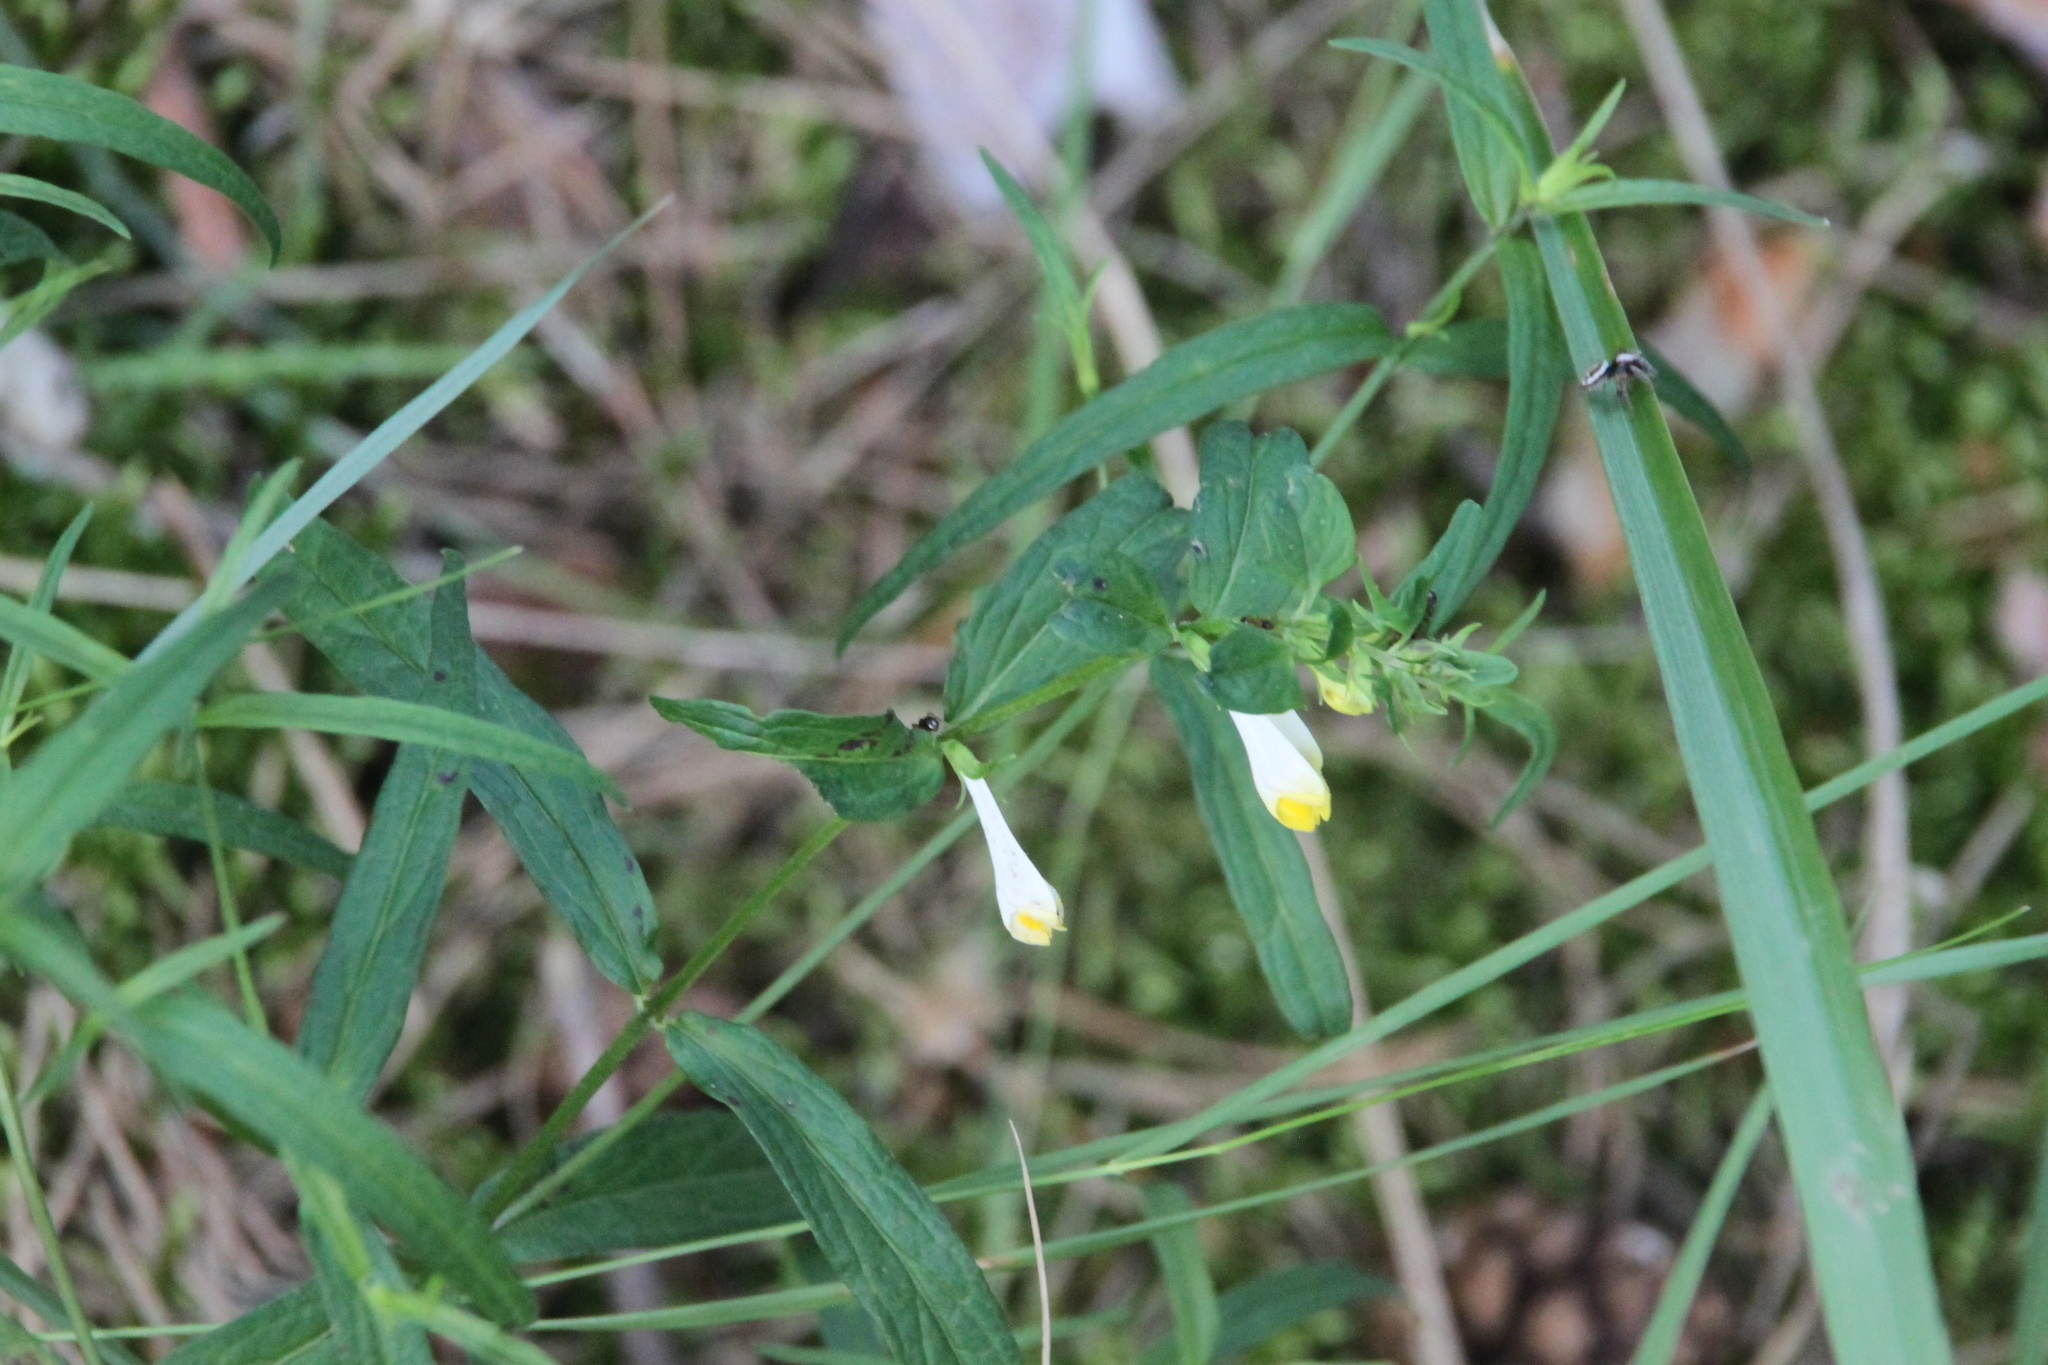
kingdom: Plantae
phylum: Tracheophyta
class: Magnoliopsida
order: Lamiales
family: Orobanchaceae
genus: Melampyrum
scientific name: Melampyrum pratense
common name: Common cow-wheat
